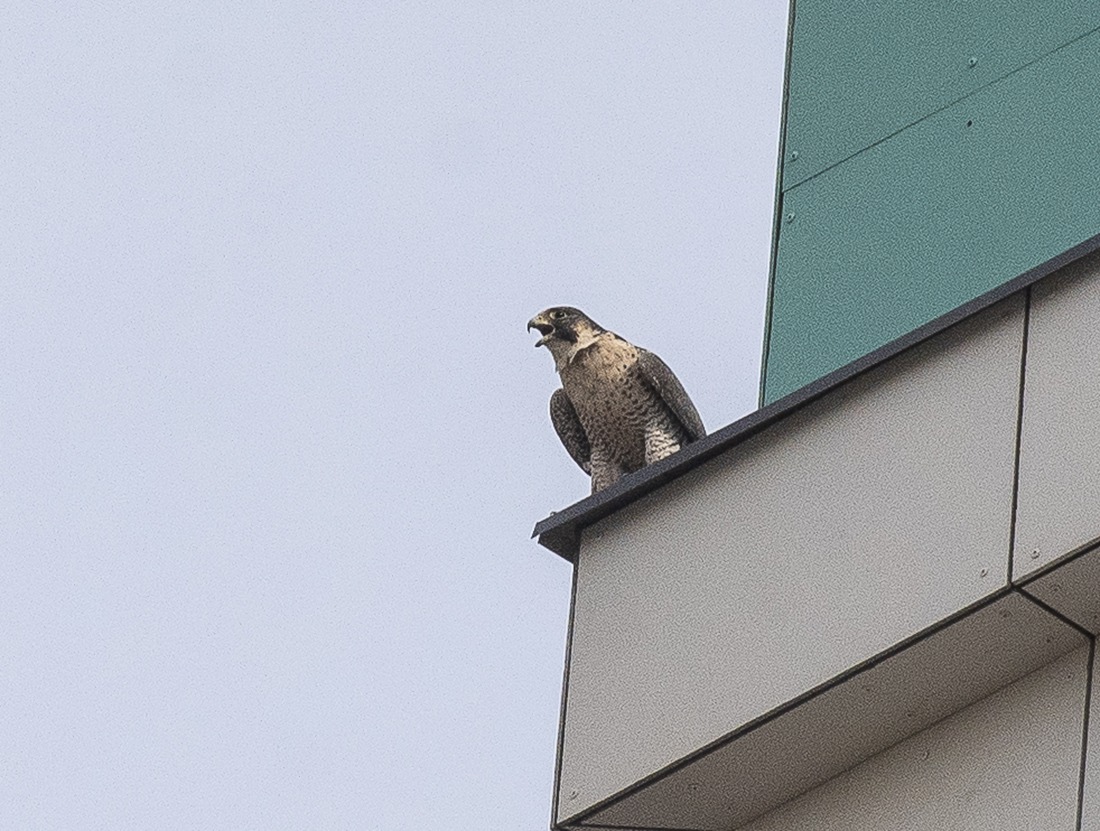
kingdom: Animalia
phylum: Chordata
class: Aves
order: Falconiformes
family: Falconidae
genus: Falco
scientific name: Falco peregrinus
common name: Peregrine falcon
